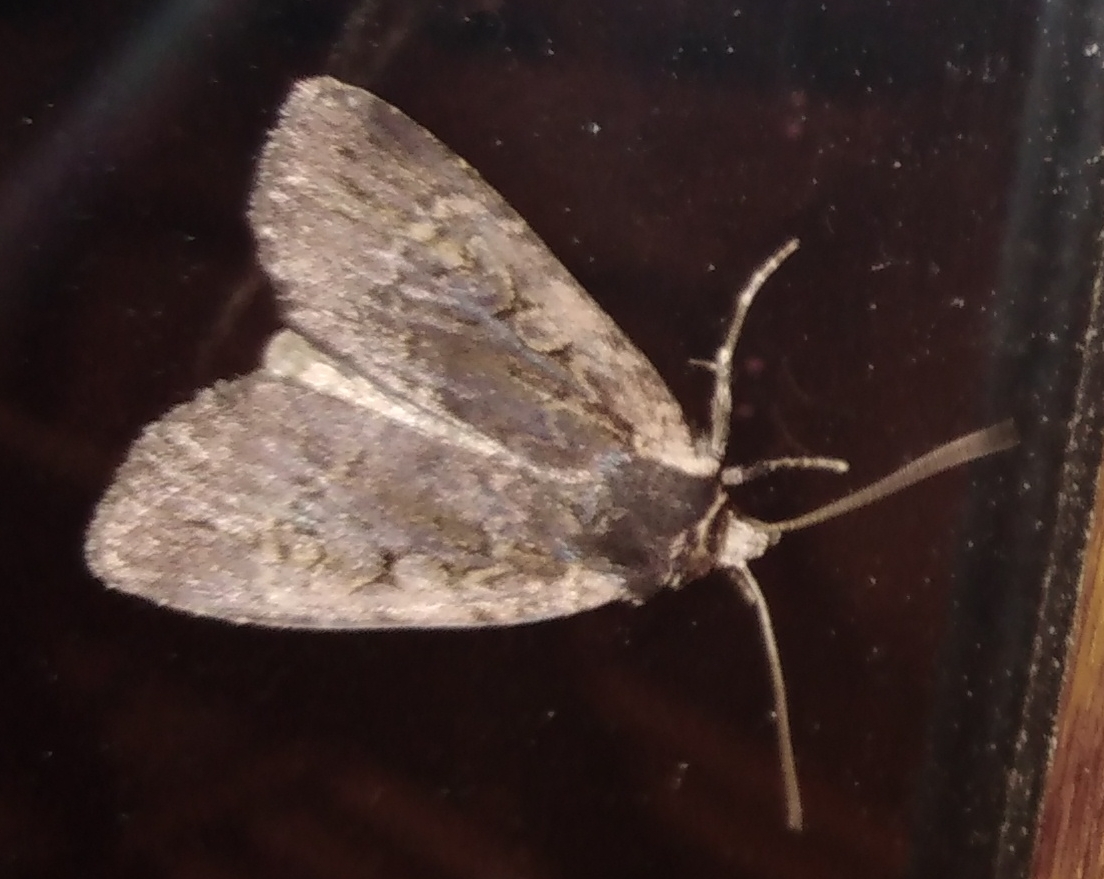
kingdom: Animalia
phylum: Arthropoda
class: Insecta
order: Lepidoptera
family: Noctuidae
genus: Eugraphe
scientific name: Eugraphe sigma
